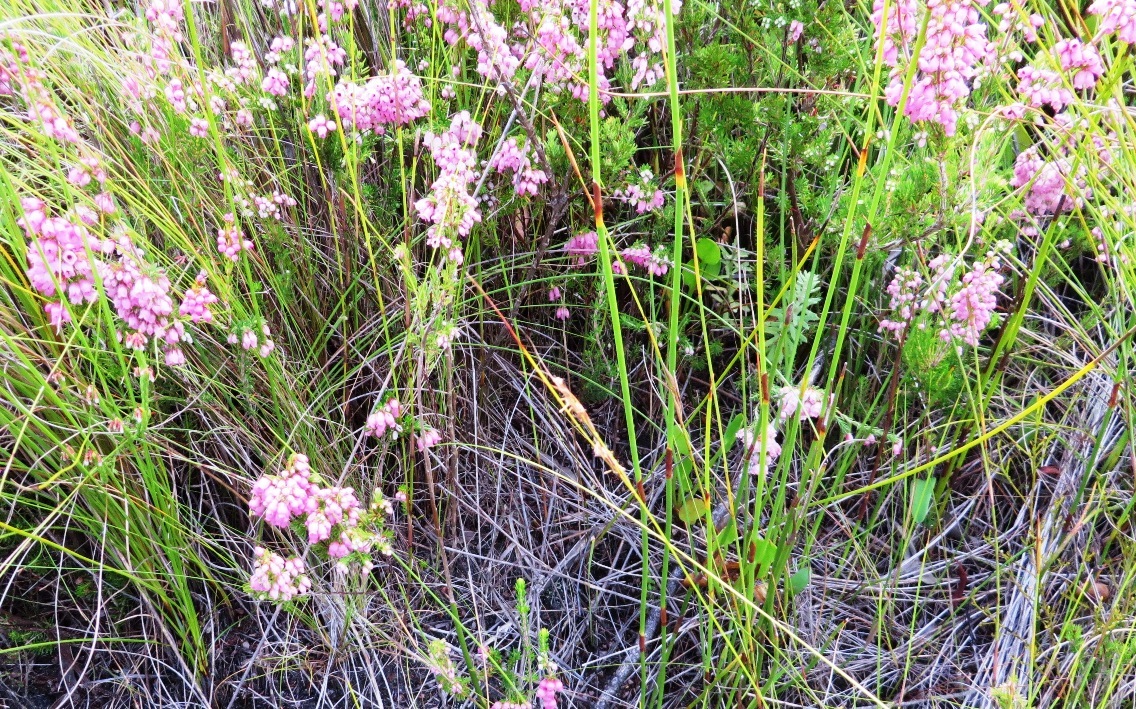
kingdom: Plantae
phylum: Tracheophyta
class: Magnoliopsida
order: Ericales
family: Ericaceae
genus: Erica
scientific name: Erica tenella
